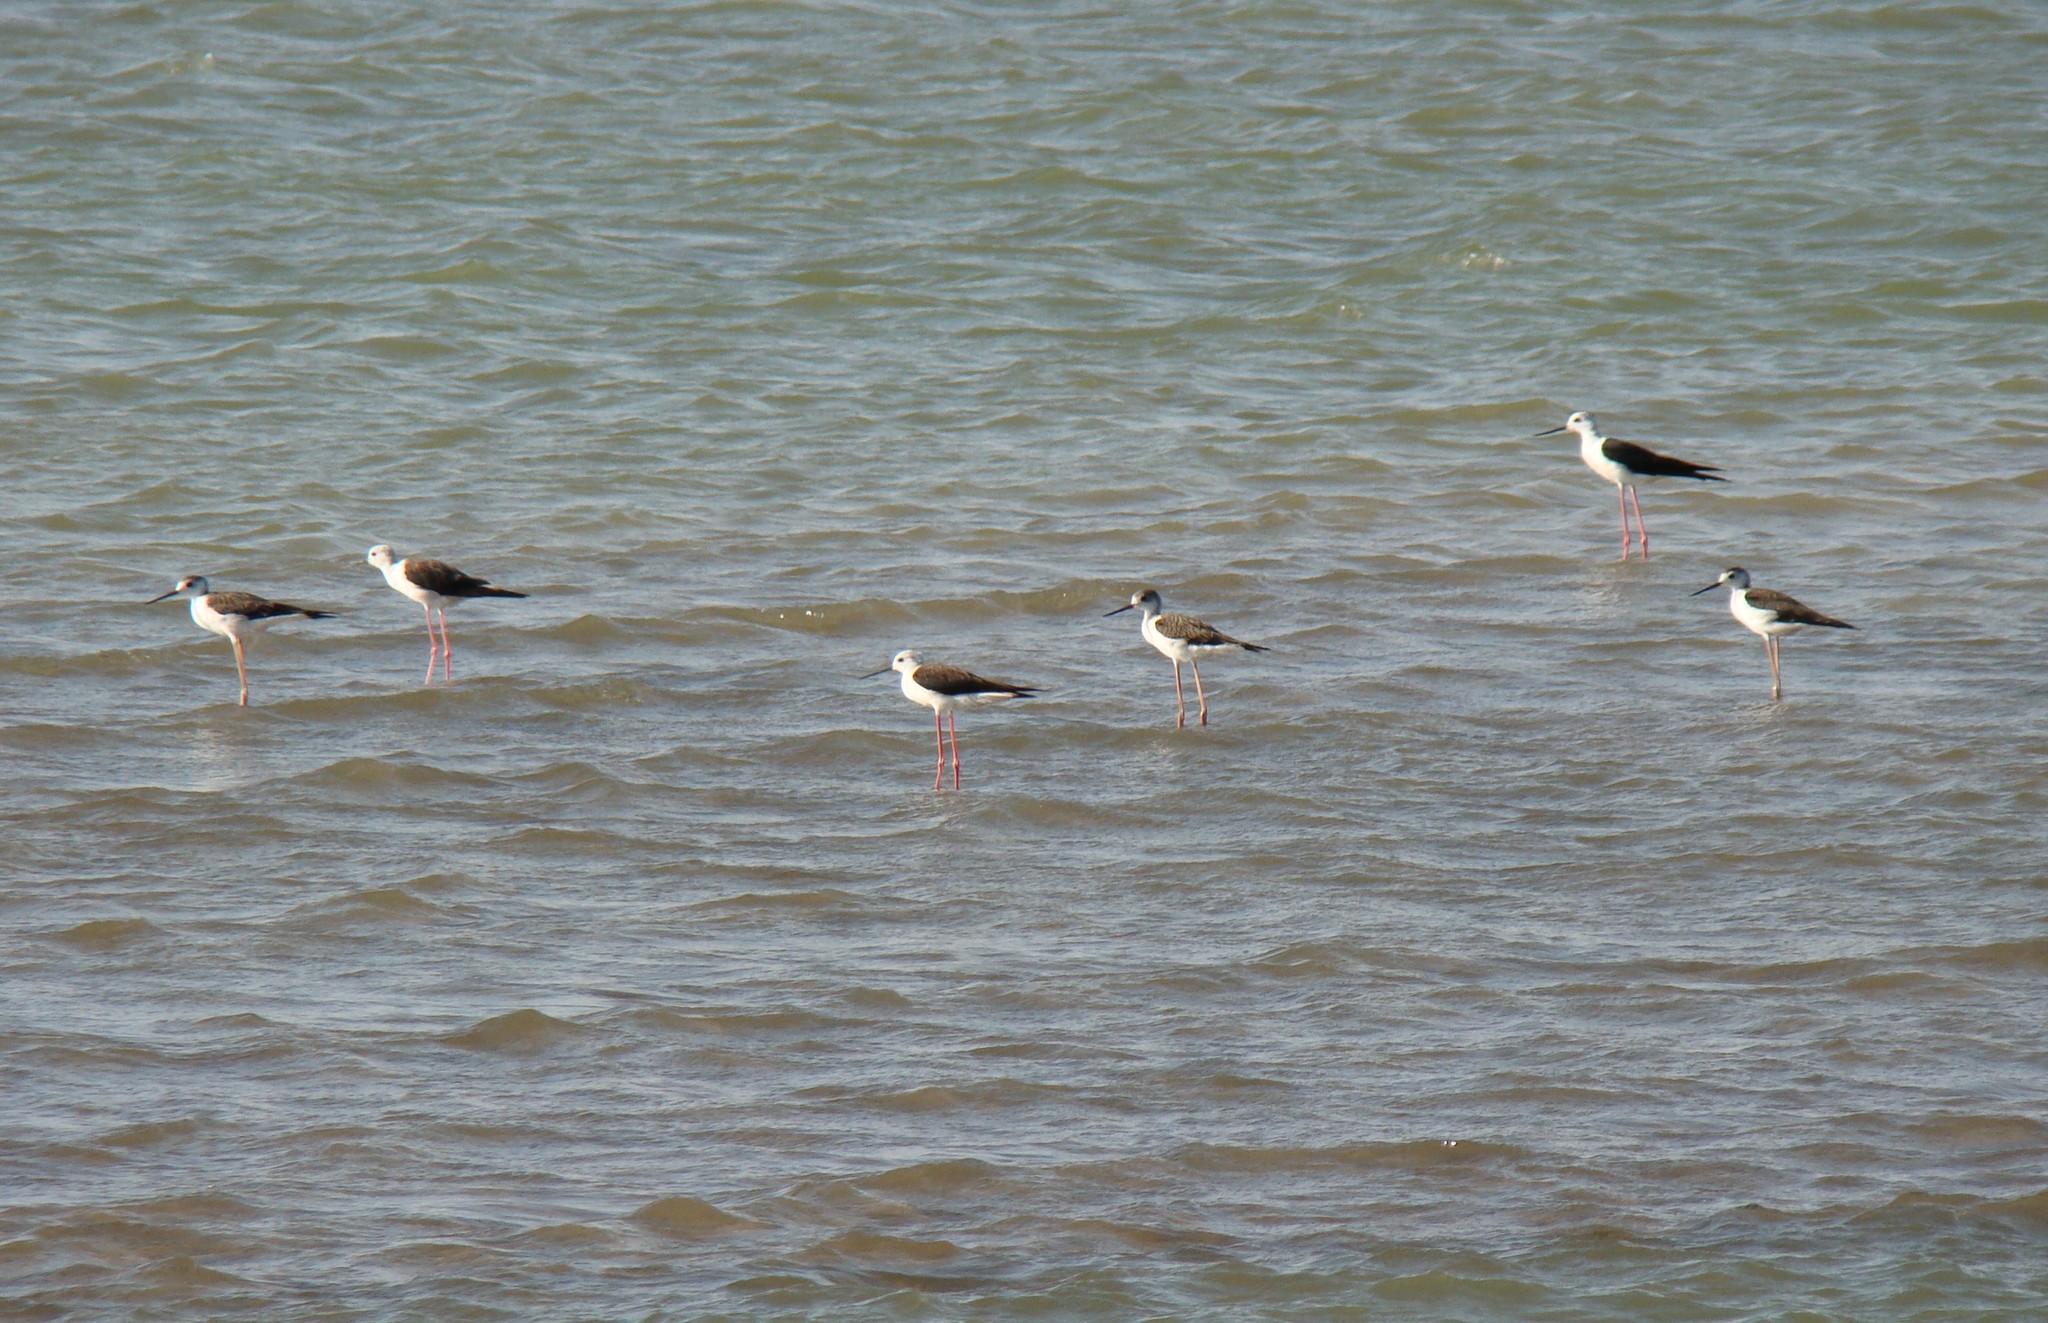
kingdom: Animalia
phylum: Chordata
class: Aves
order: Charadriiformes
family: Recurvirostridae
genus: Himantopus
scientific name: Himantopus himantopus
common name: Black-winged stilt
